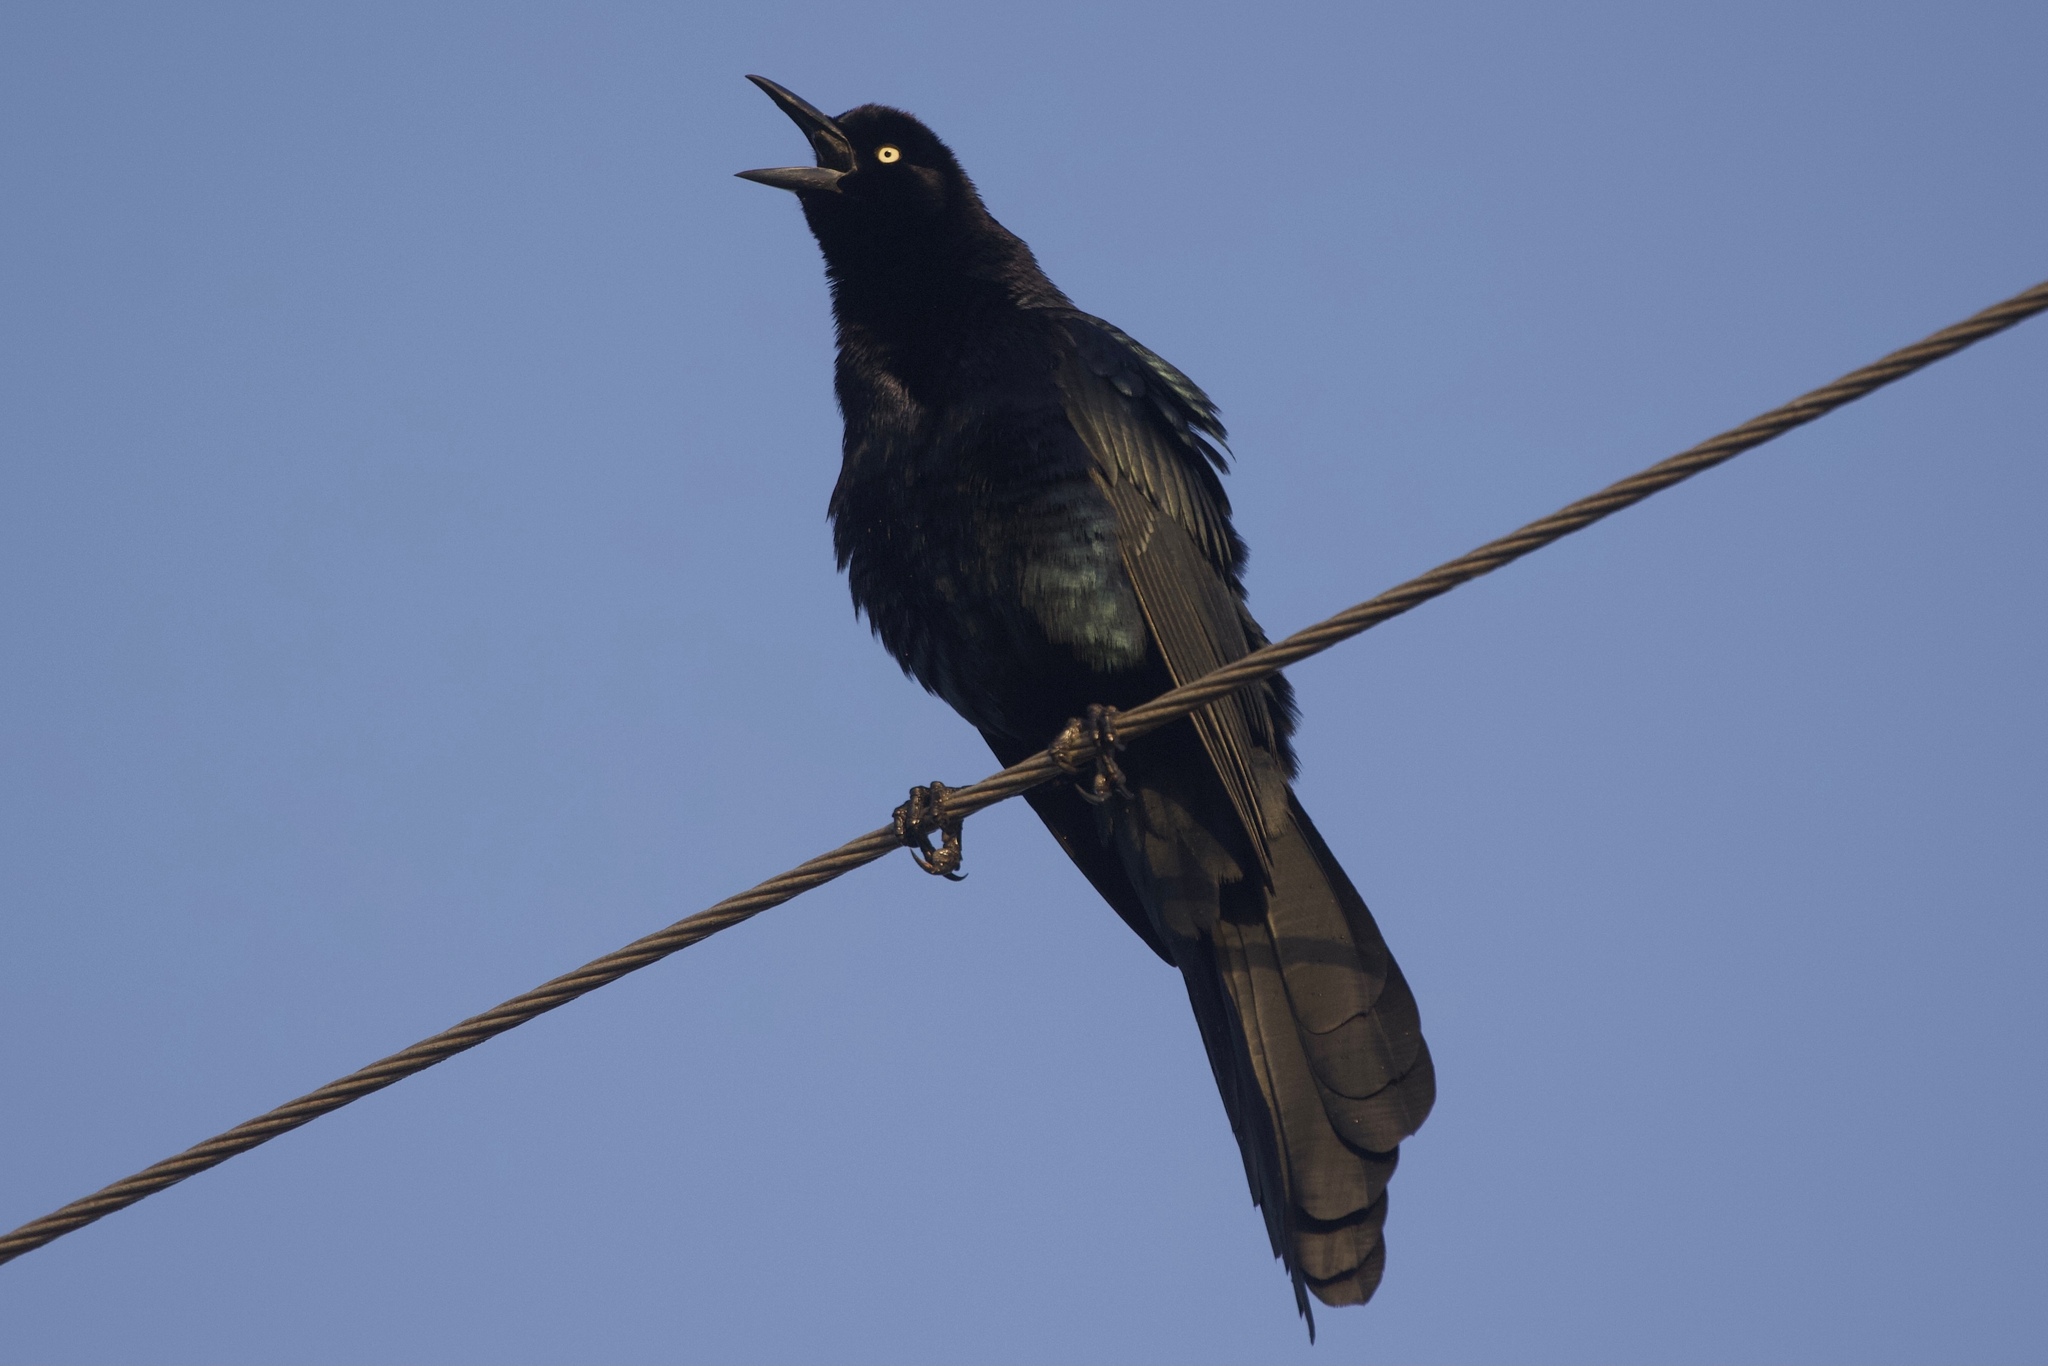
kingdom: Animalia
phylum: Chordata
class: Aves
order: Passeriformes
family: Icteridae
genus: Quiscalus
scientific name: Quiscalus mexicanus
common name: Great-tailed grackle
